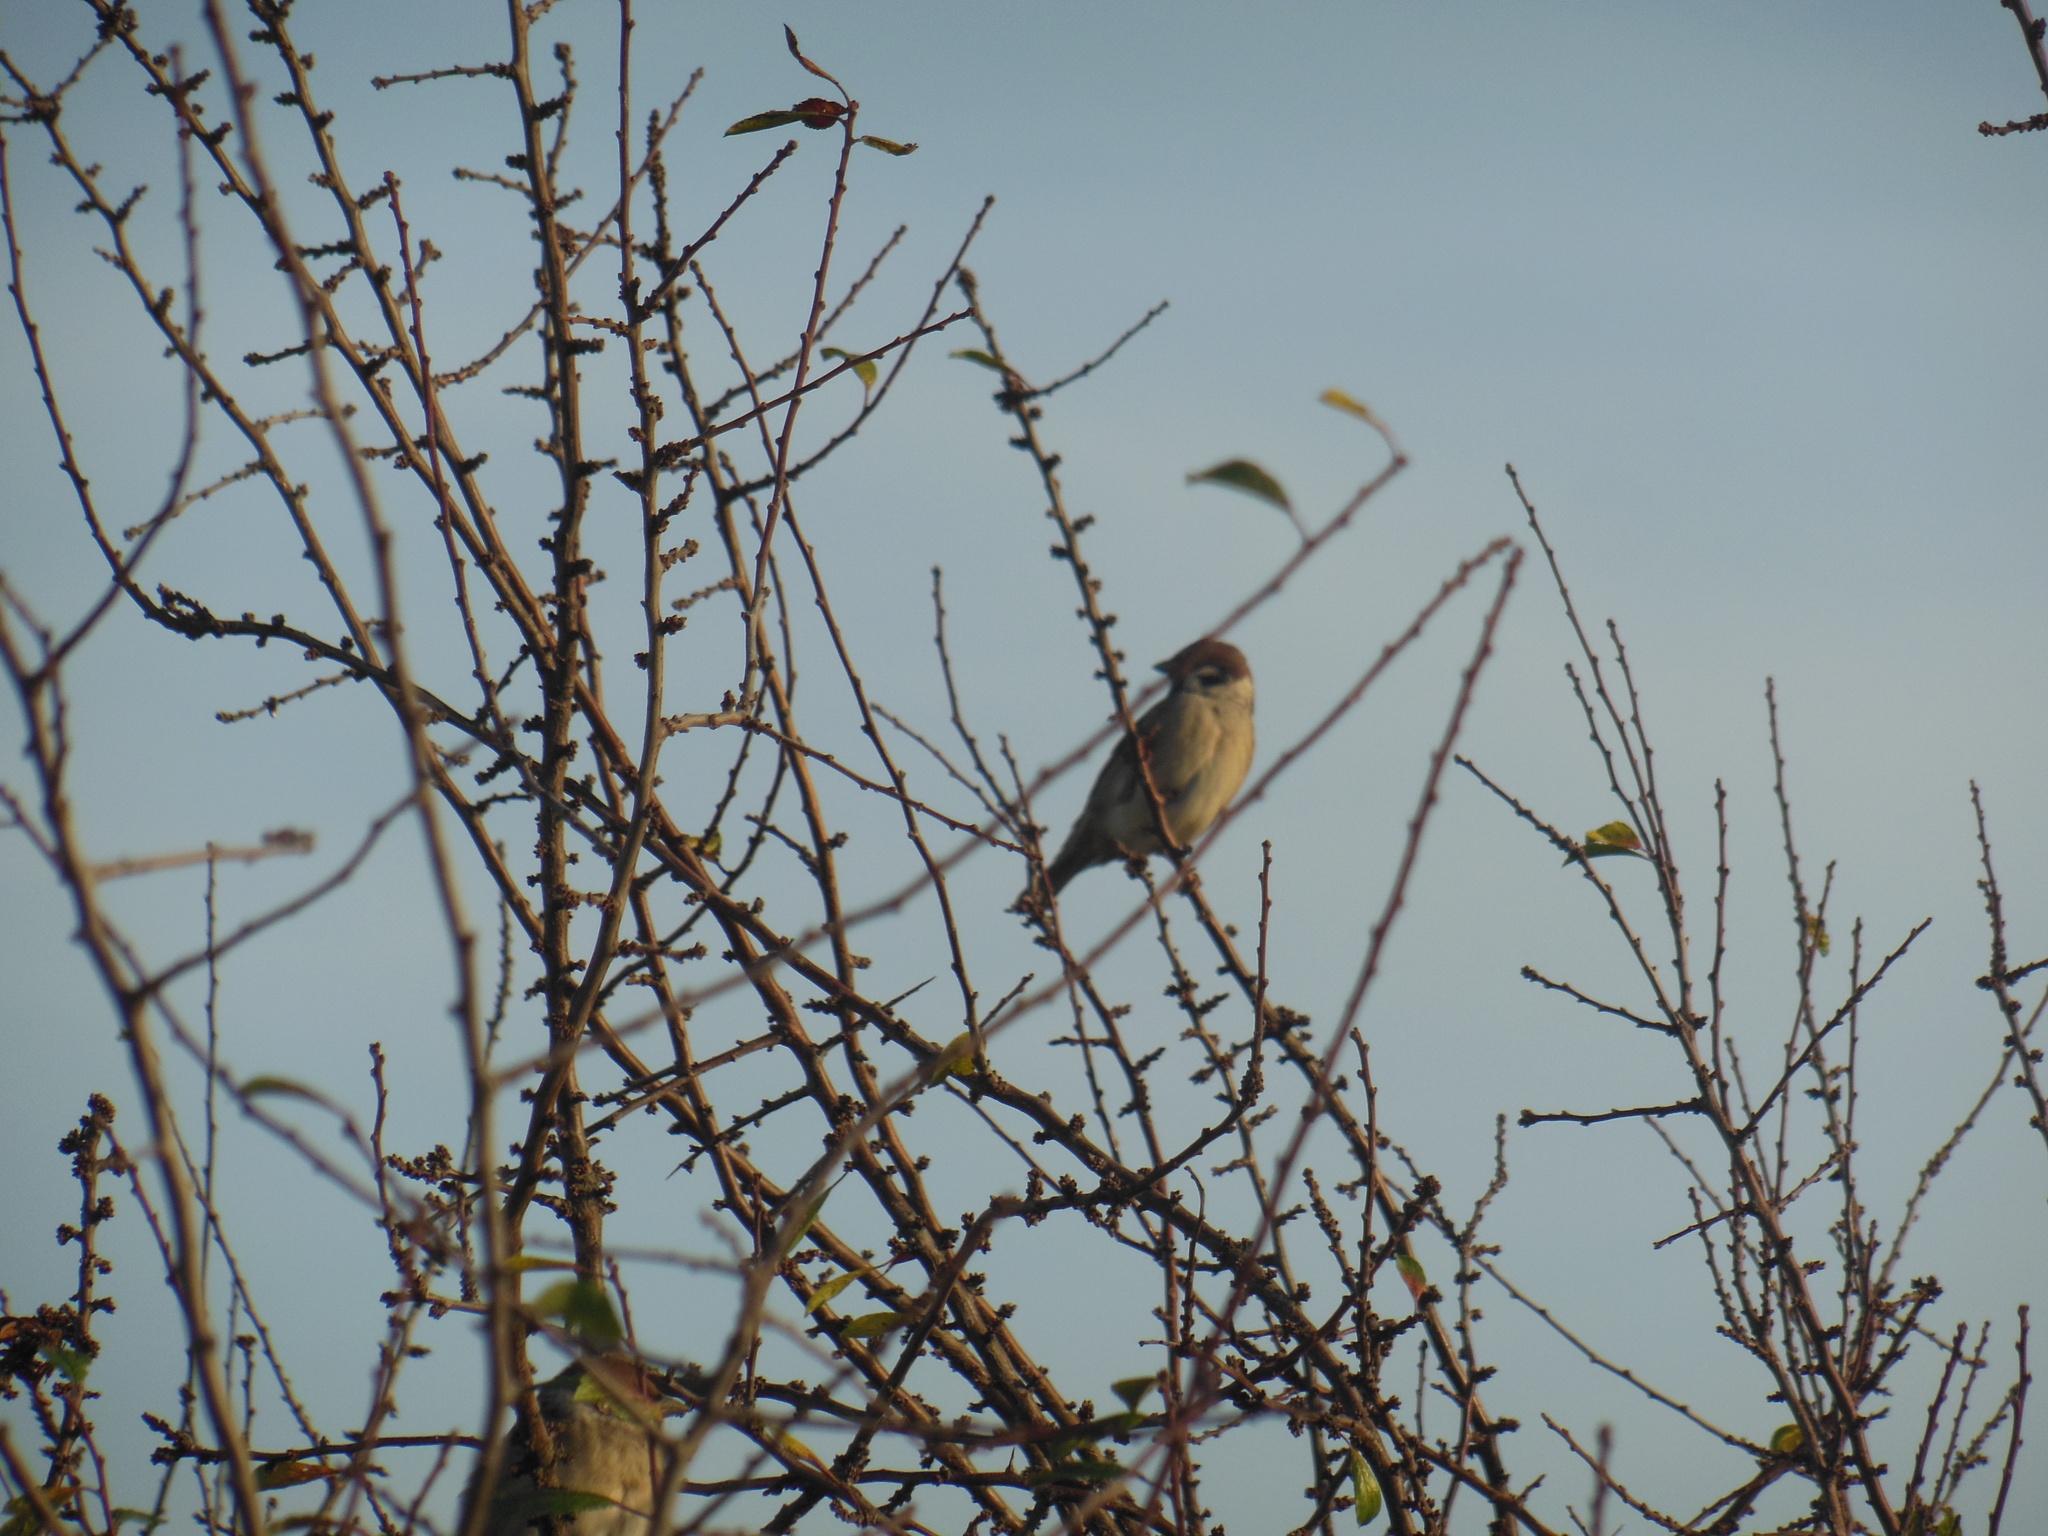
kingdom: Animalia
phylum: Chordata
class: Aves
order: Passeriformes
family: Passeridae
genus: Passer
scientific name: Passer montanus
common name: Eurasian tree sparrow
